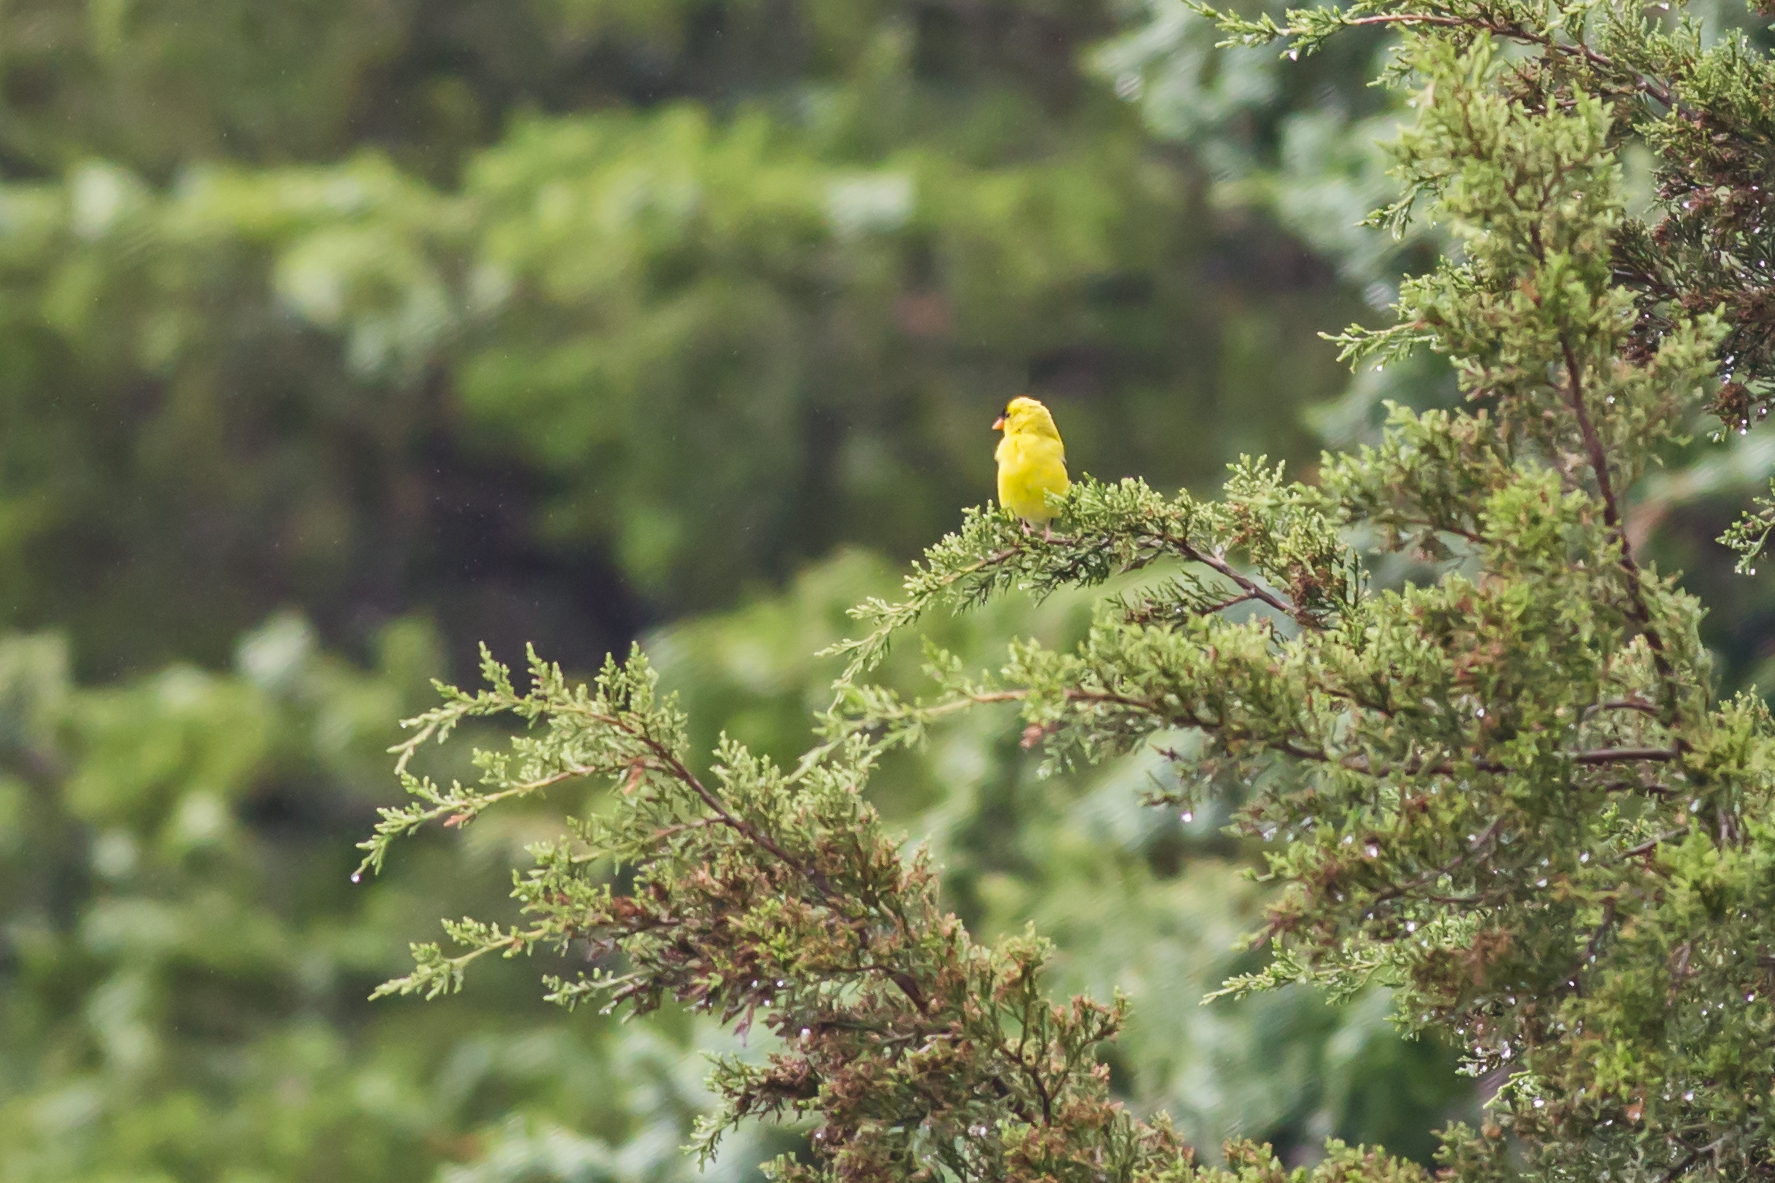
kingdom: Animalia
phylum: Chordata
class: Aves
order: Passeriformes
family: Fringillidae
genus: Spinus
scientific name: Spinus tristis
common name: American goldfinch
